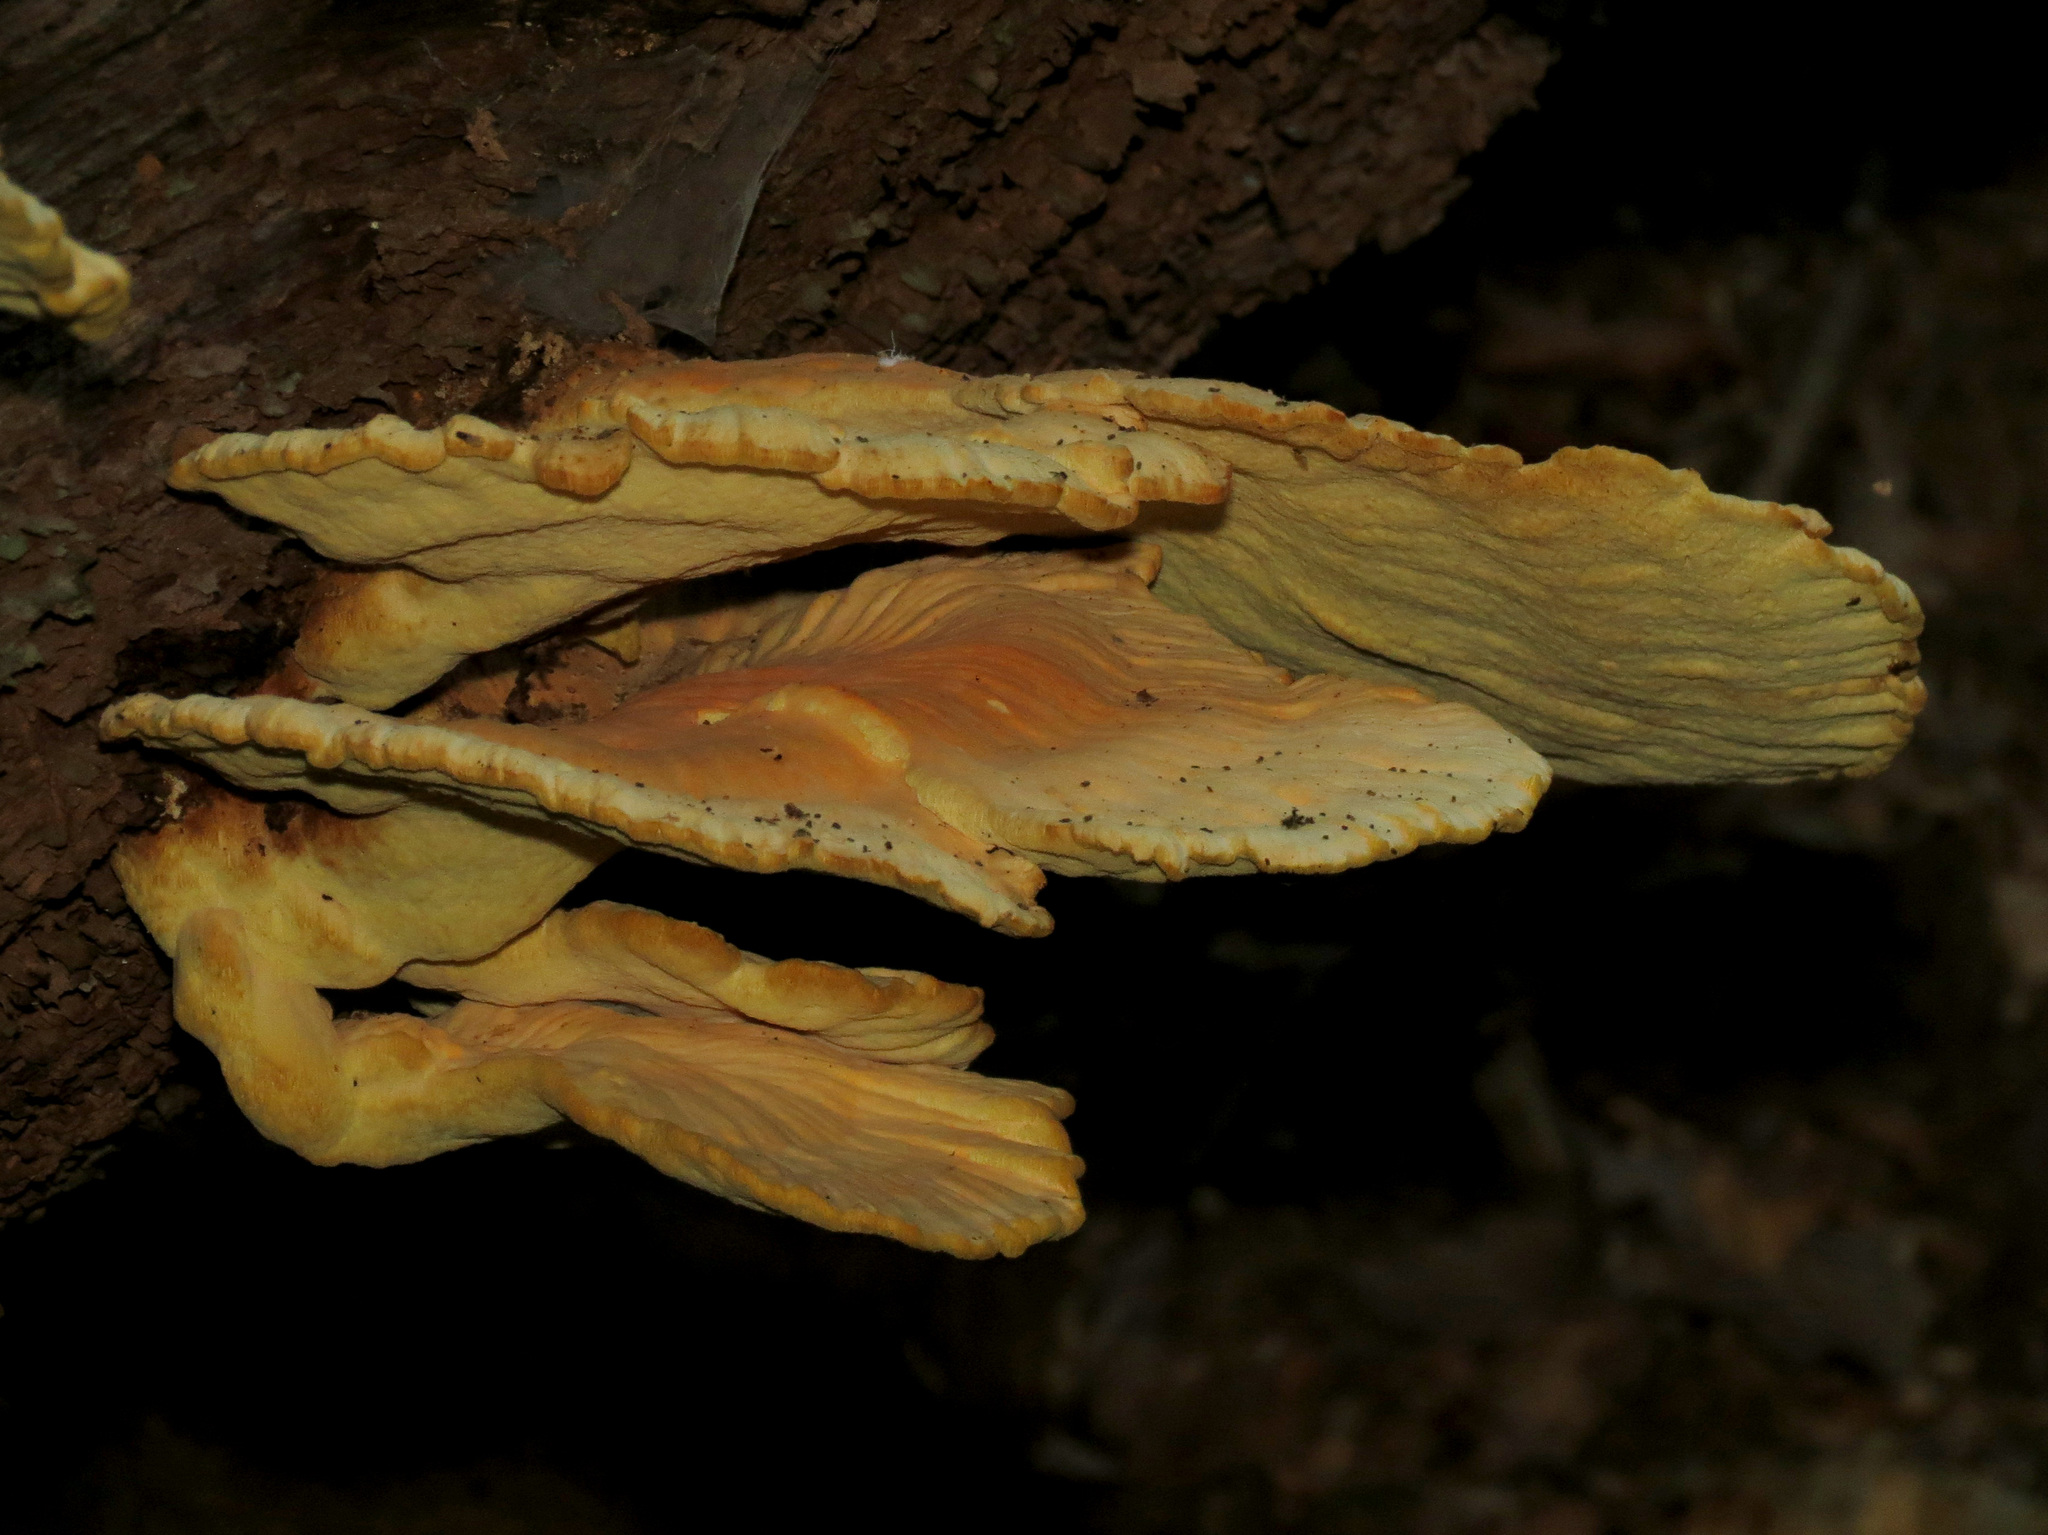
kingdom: Fungi
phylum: Basidiomycota
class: Agaricomycetes
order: Polyporales
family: Laetiporaceae
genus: Laetiporus
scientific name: Laetiporus sulphureus
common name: Chicken of the woods
